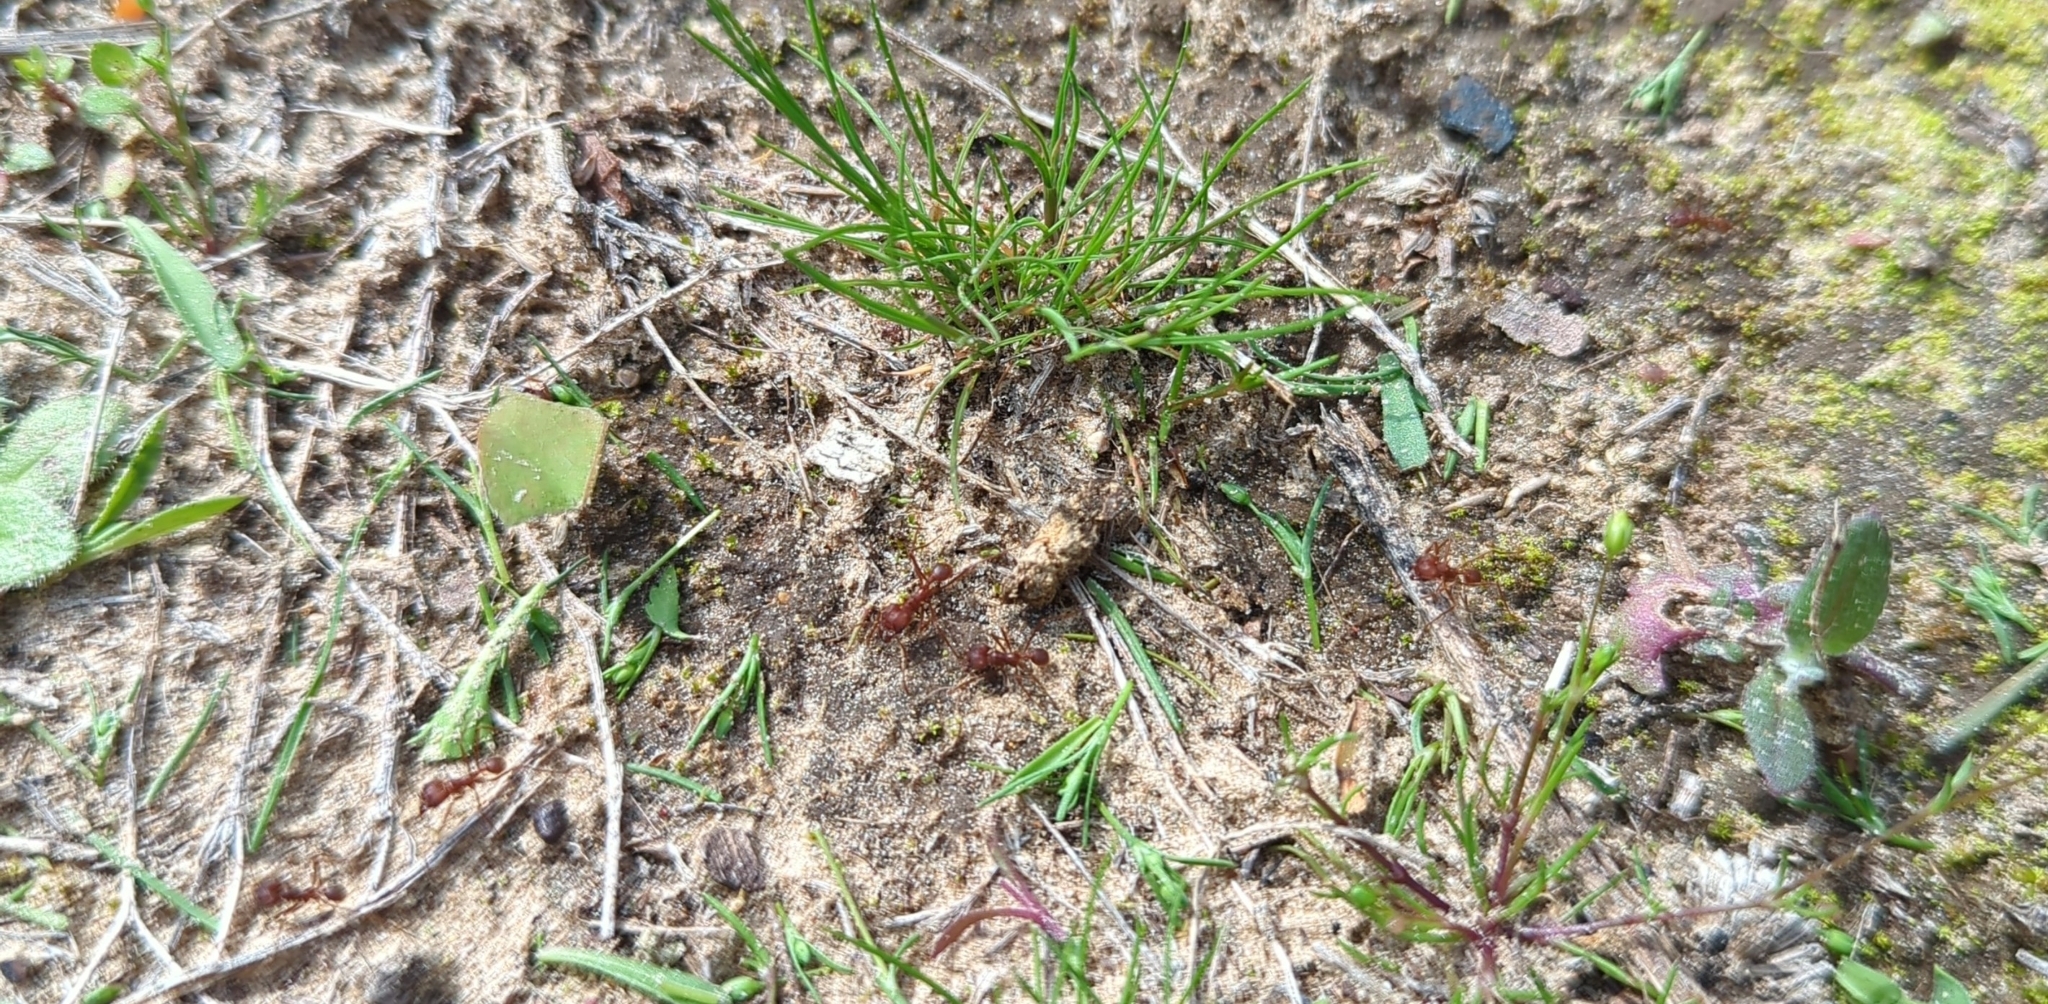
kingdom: Animalia
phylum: Arthropoda
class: Insecta
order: Hymenoptera
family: Formicidae
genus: Atta
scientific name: Atta texana
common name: Texas leafcutting ant
